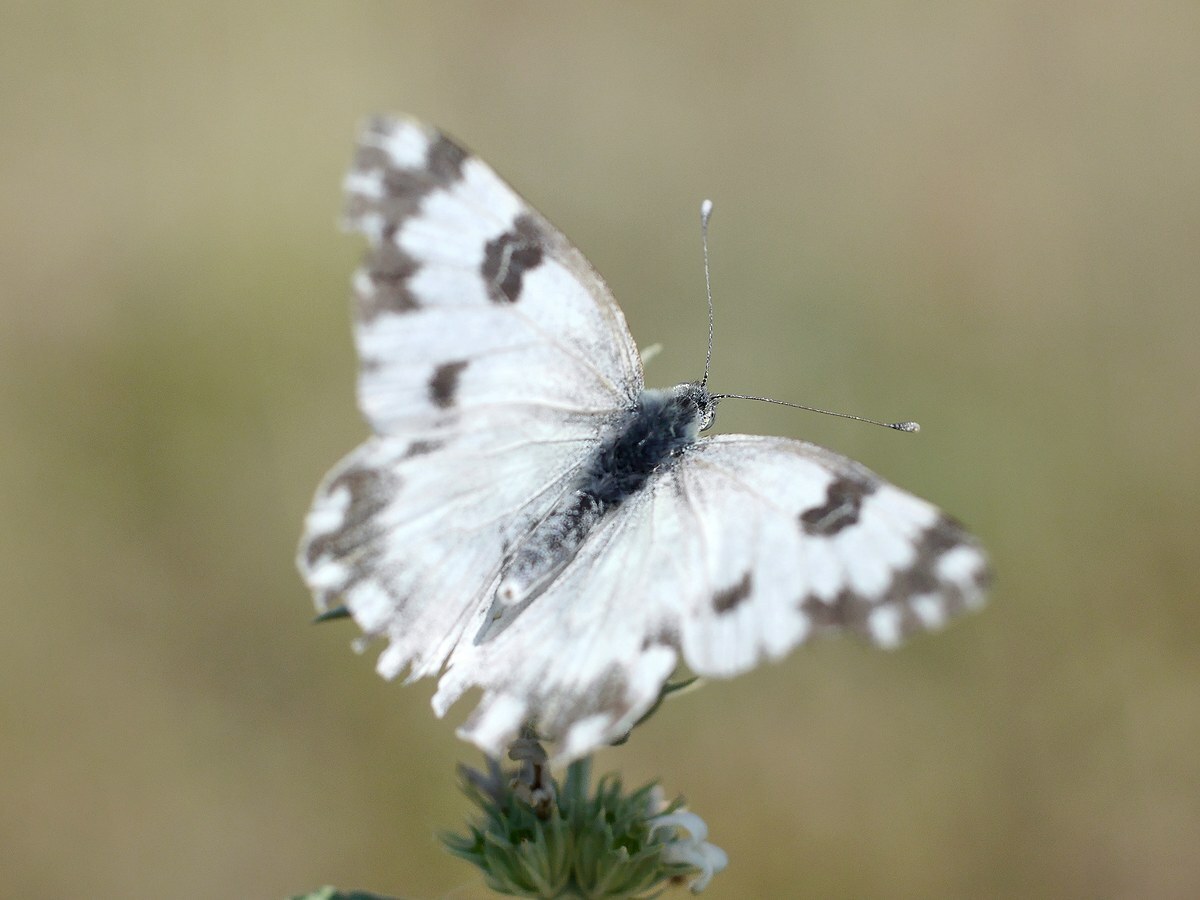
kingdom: Animalia
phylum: Arthropoda
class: Insecta
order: Lepidoptera
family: Pieridae
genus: Pontia
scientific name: Pontia edusa
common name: Eastern bath white
